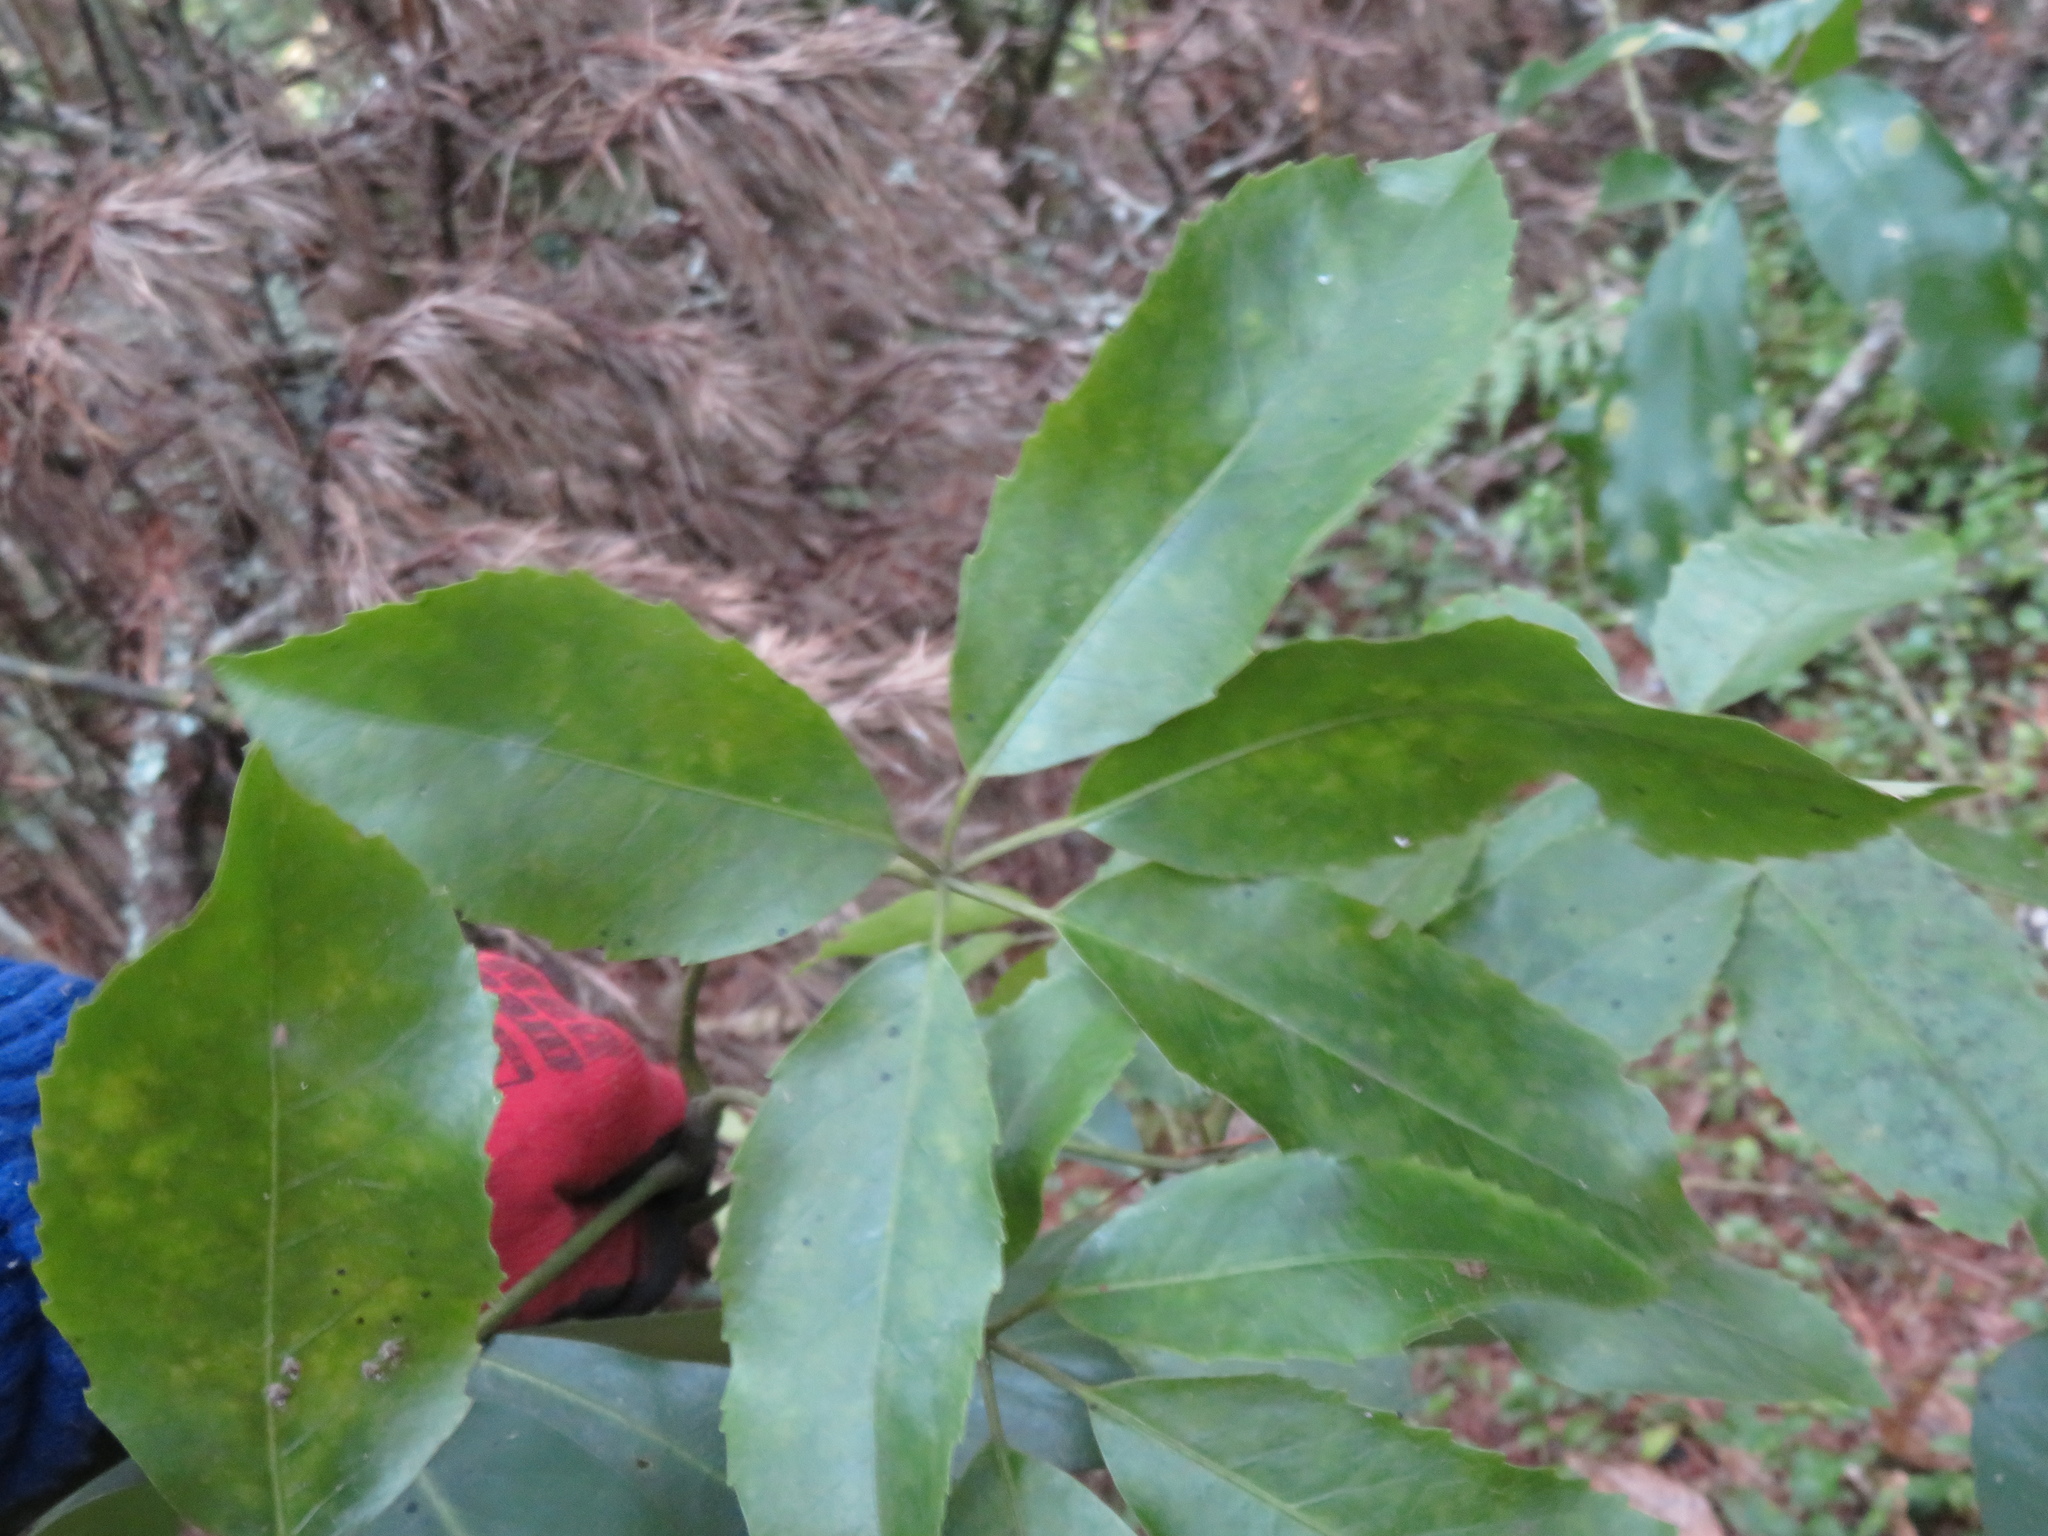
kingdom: Plantae
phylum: Tracheophyta
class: Magnoliopsida
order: Apiales
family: Araliaceae
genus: Neopanax
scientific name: Neopanax arboreus
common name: Five-fingers
